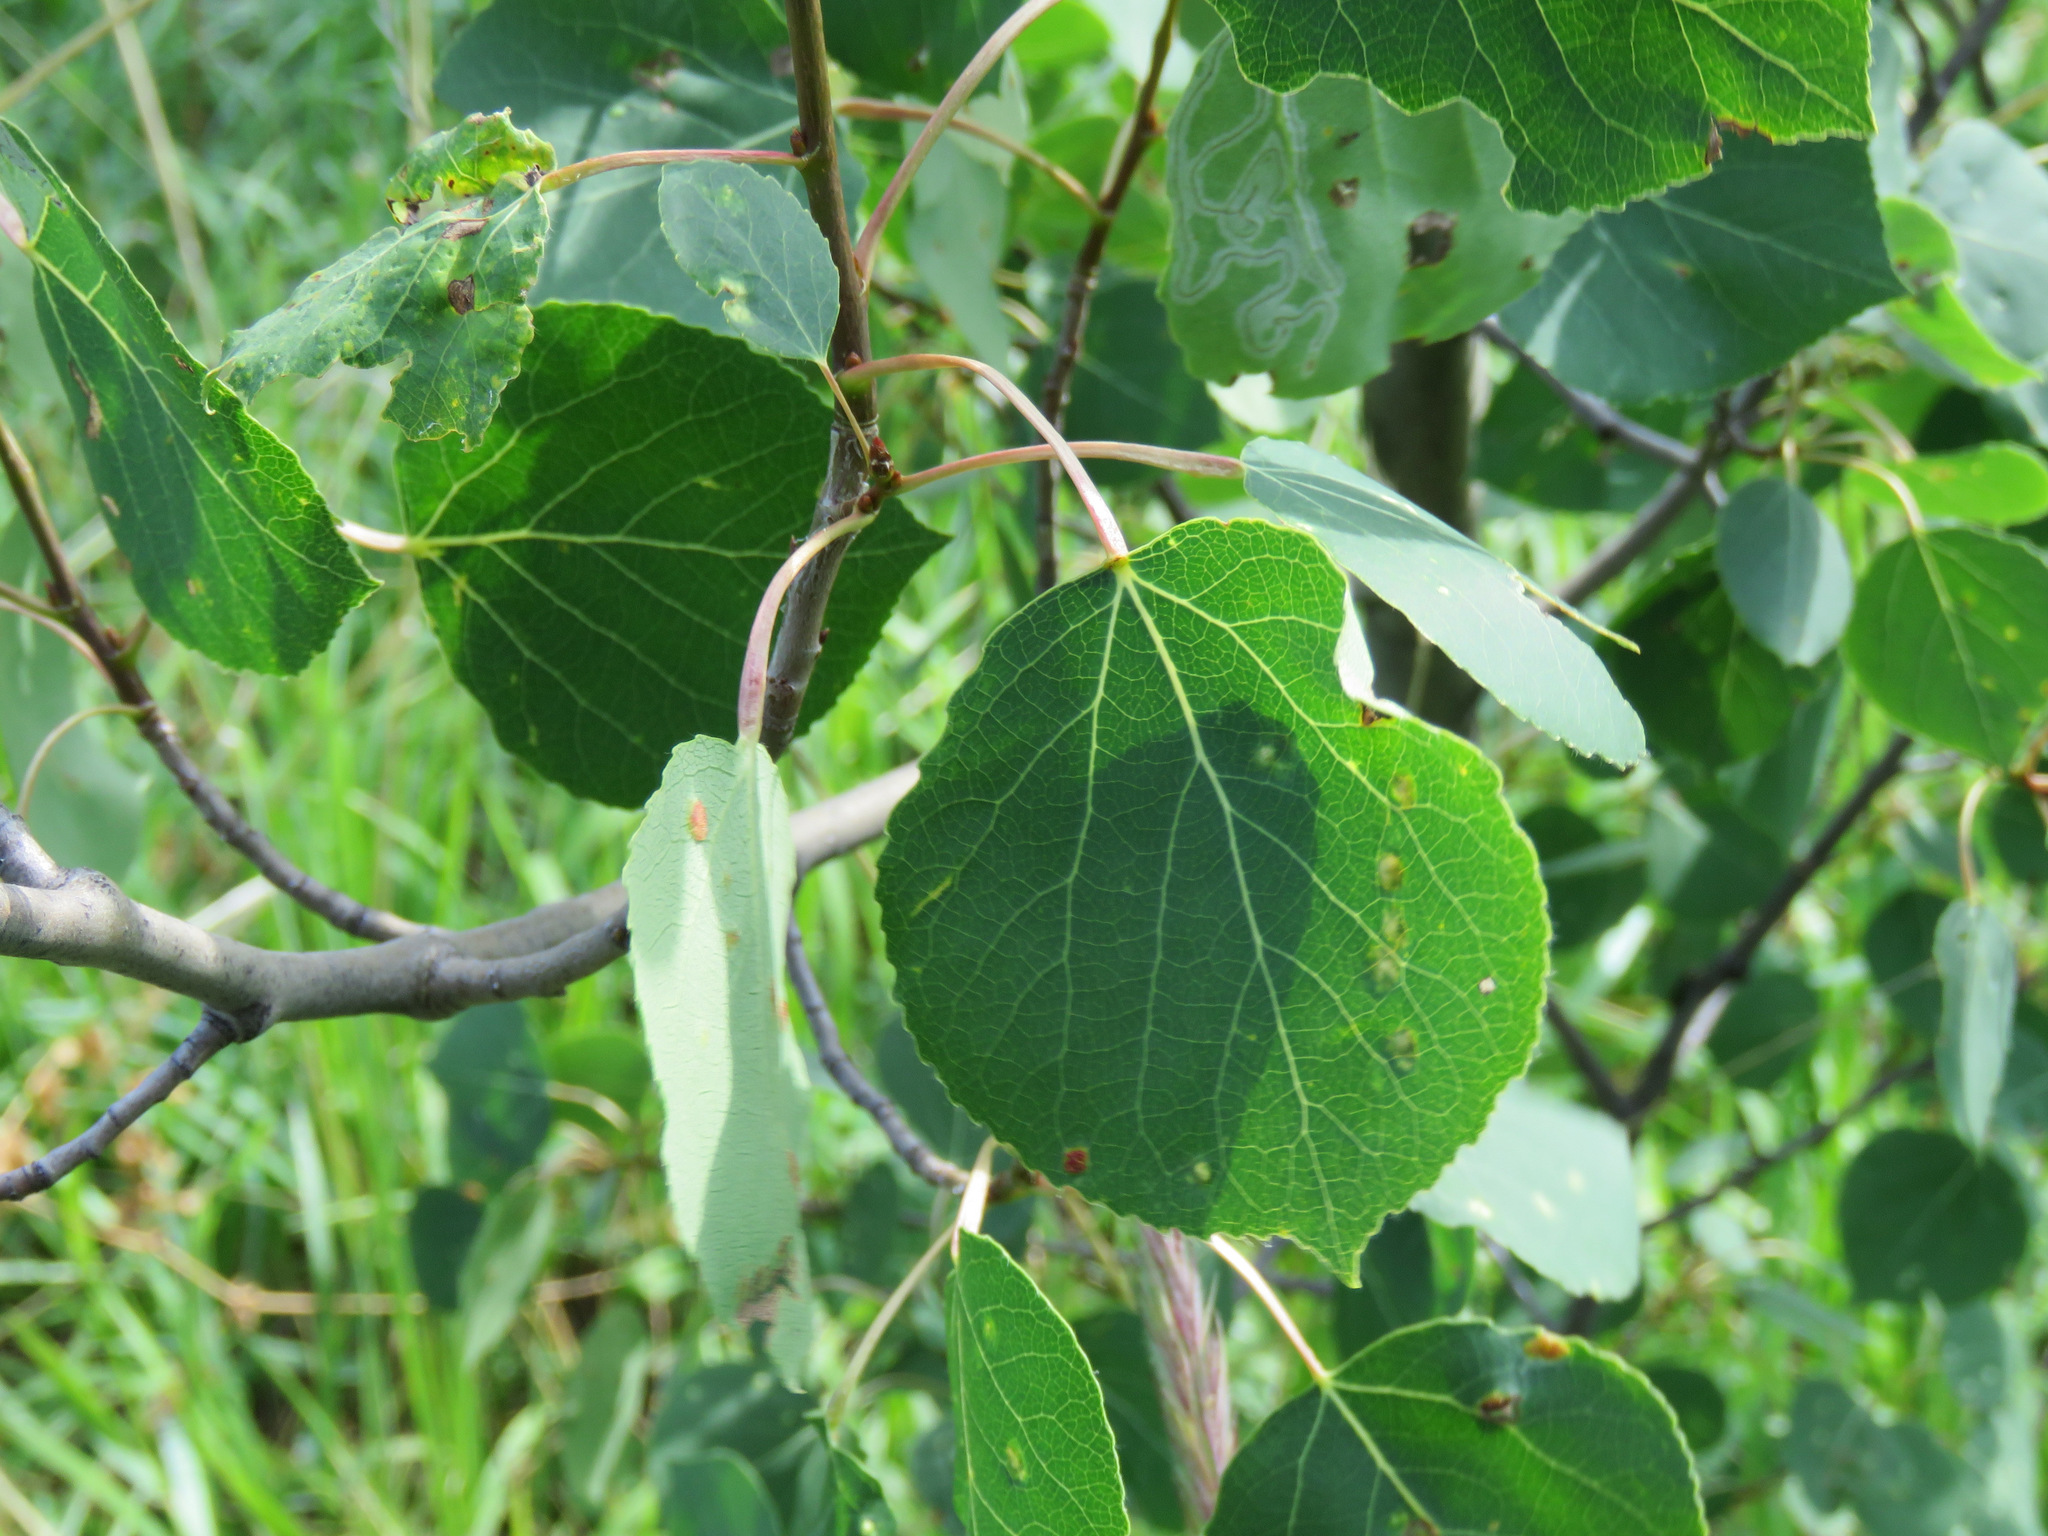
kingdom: Plantae
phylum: Tracheophyta
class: Magnoliopsida
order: Malpighiales
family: Salicaceae
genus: Populus
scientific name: Populus tremuloides
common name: Quaking aspen
